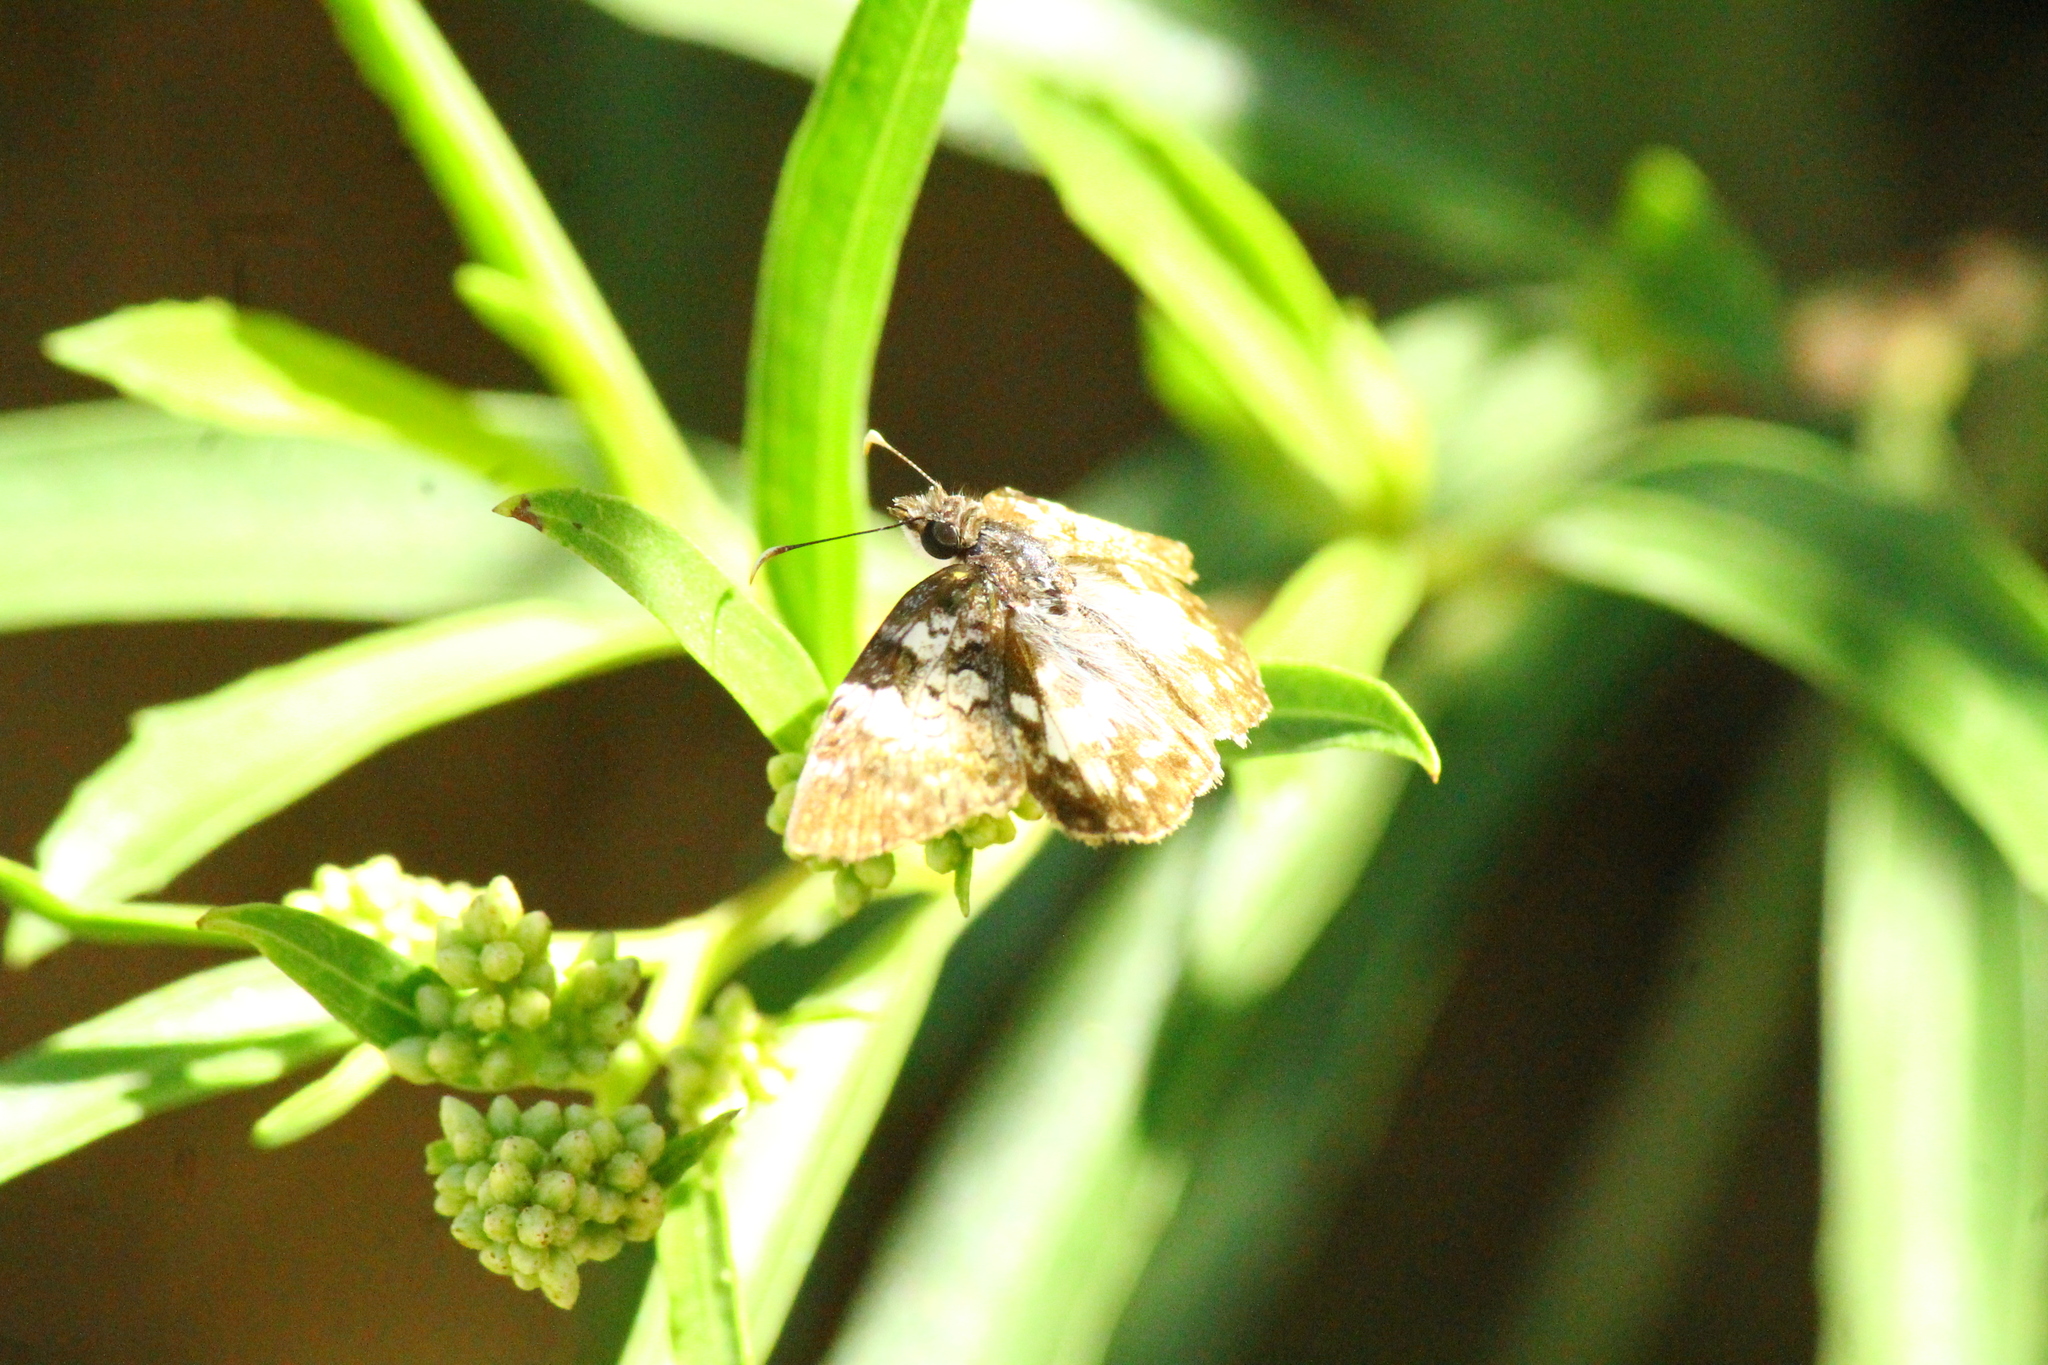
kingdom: Animalia
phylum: Arthropoda
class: Insecta
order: Lepidoptera
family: Hesperiidae
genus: Chiomara
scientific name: Chiomara asychis
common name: White-patterned skipper
